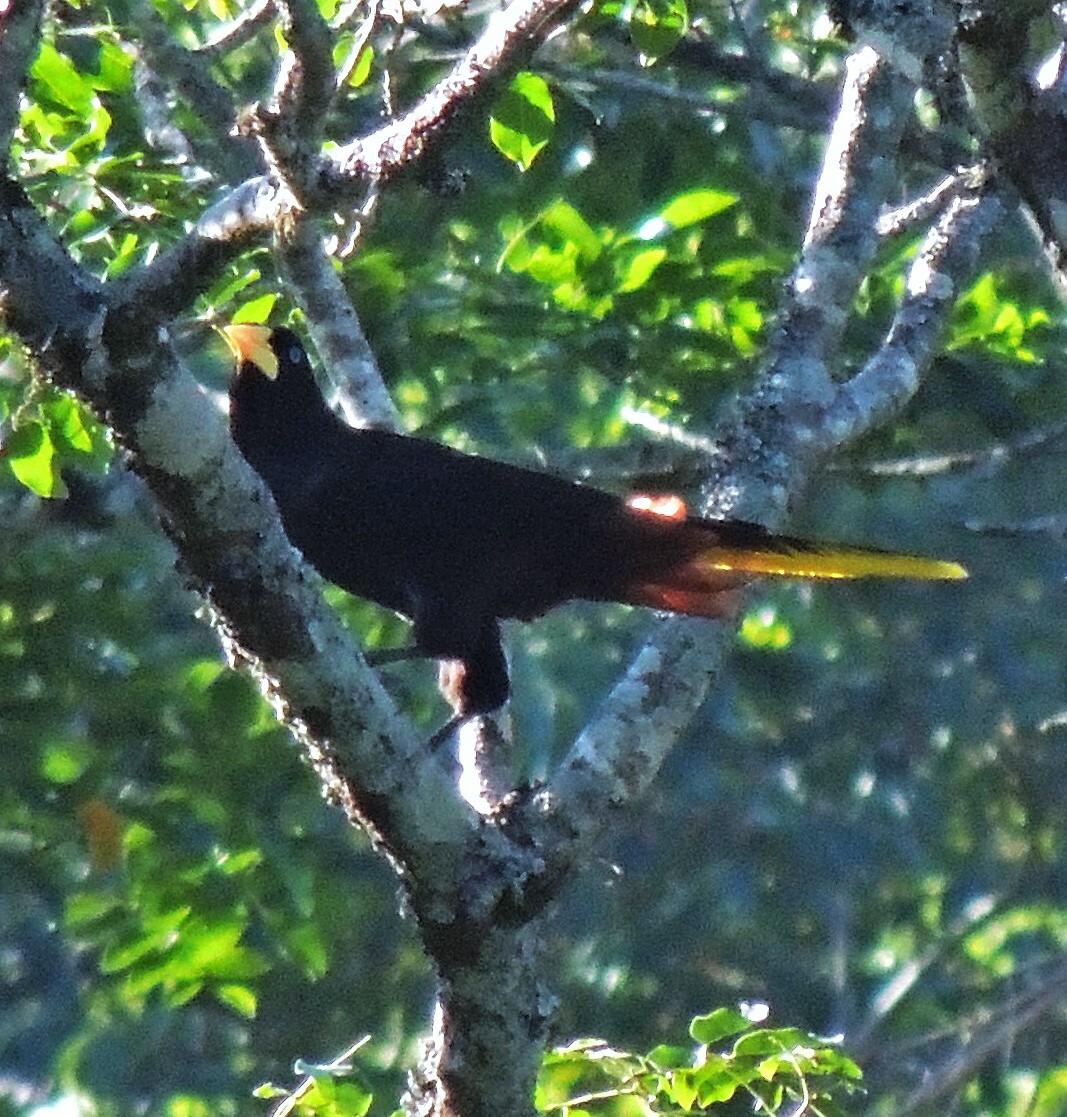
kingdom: Animalia
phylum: Chordata
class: Aves
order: Passeriformes
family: Icteridae
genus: Psarocolius
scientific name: Psarocolius decumanus
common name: Crested oropendola
